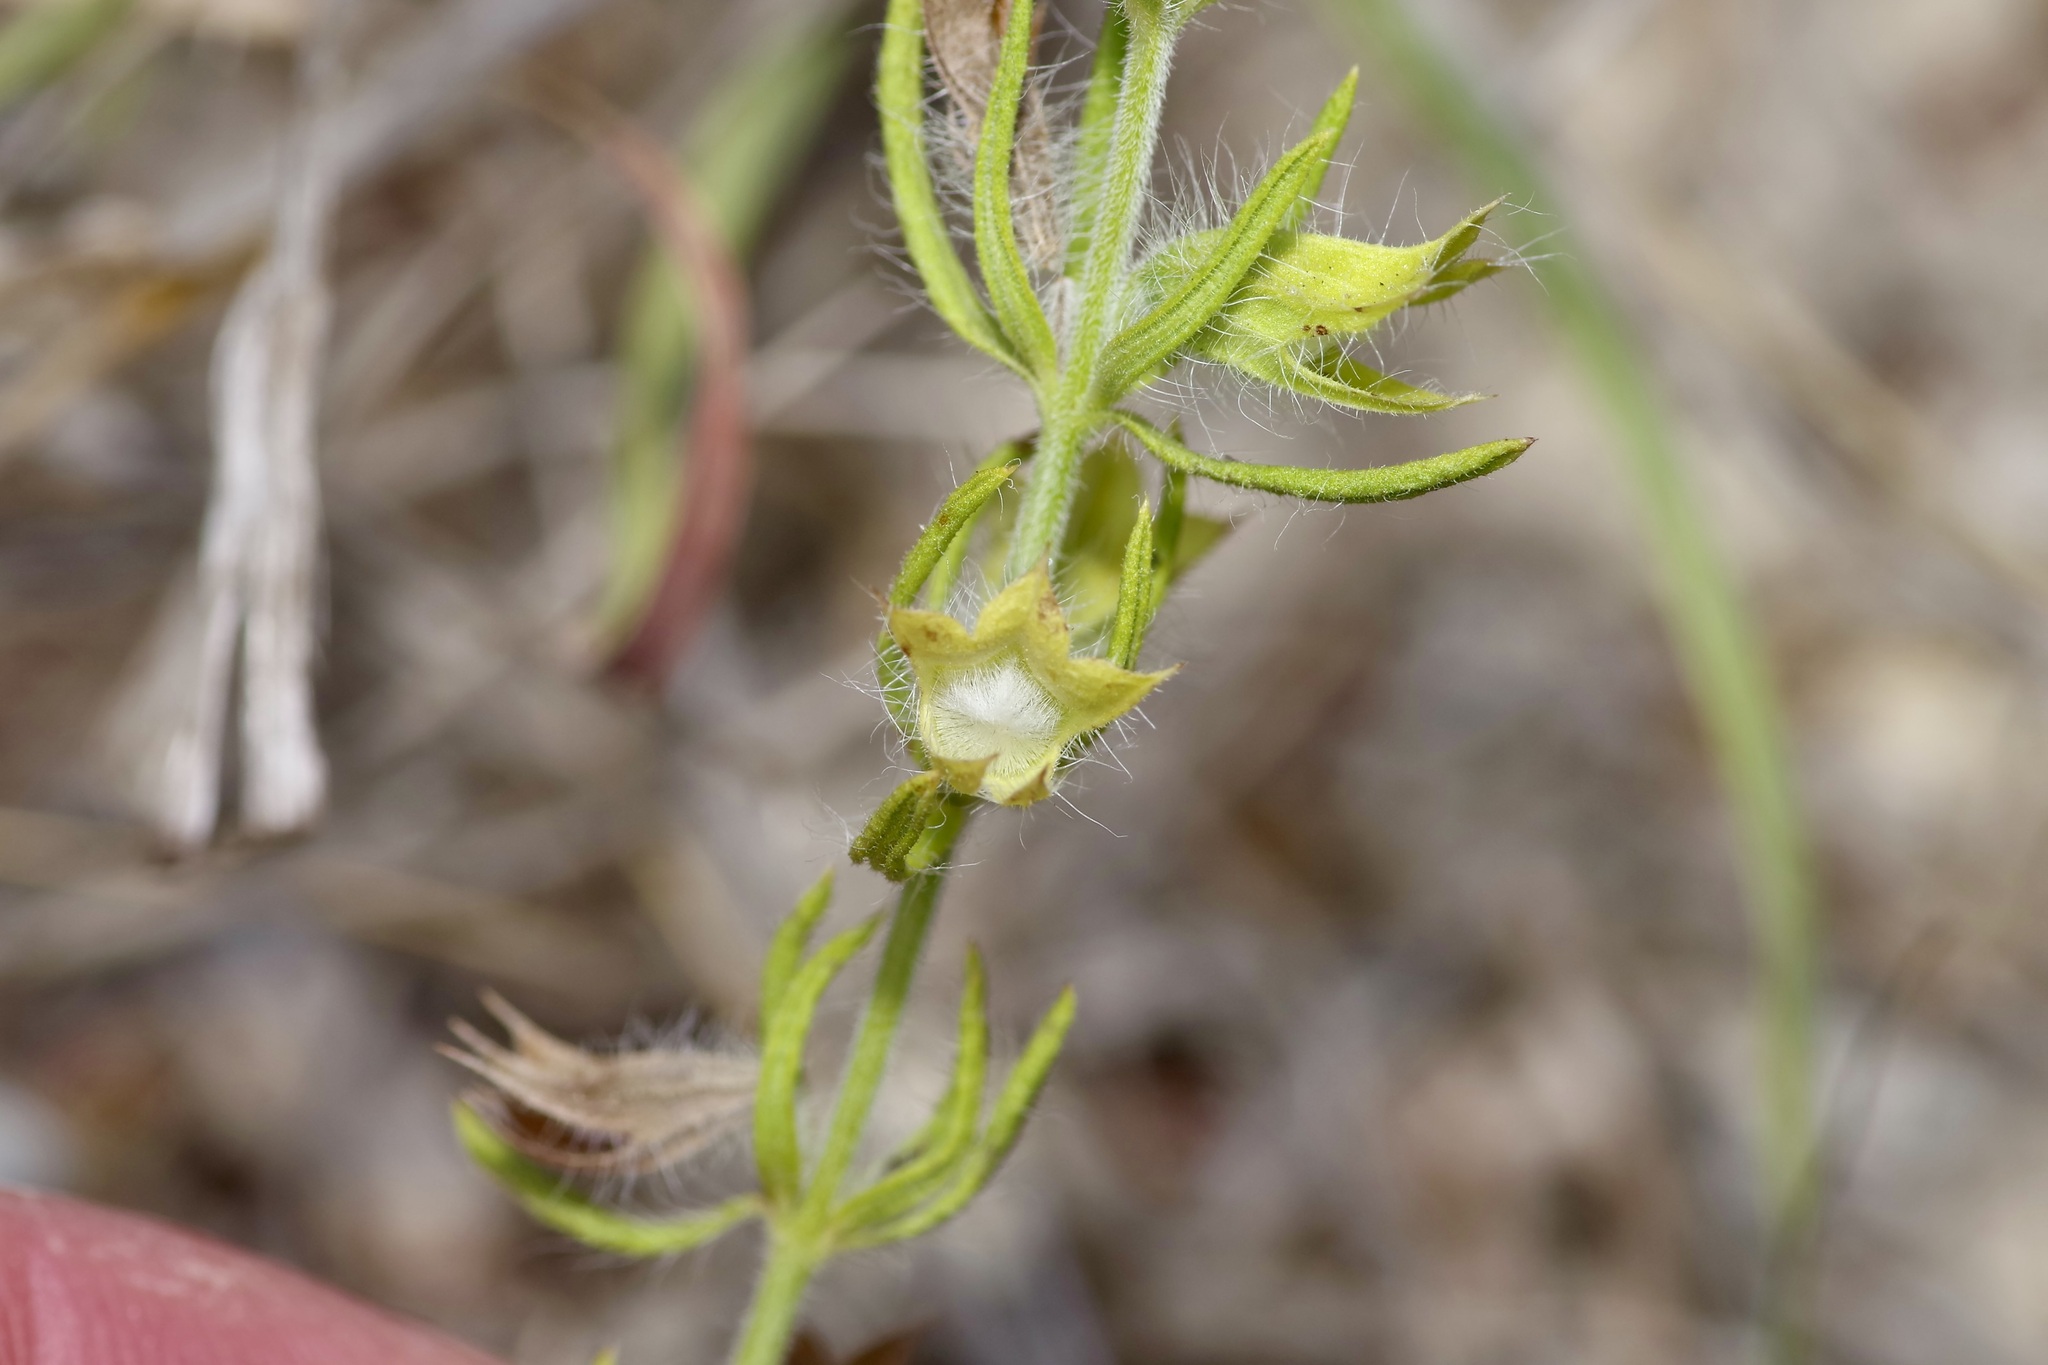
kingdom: Plantae
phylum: Tracheophyta
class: Magnoliopsida
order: Lamiales
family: Lamiaceae
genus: Salvia
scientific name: Salvia texana
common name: Texas sage
